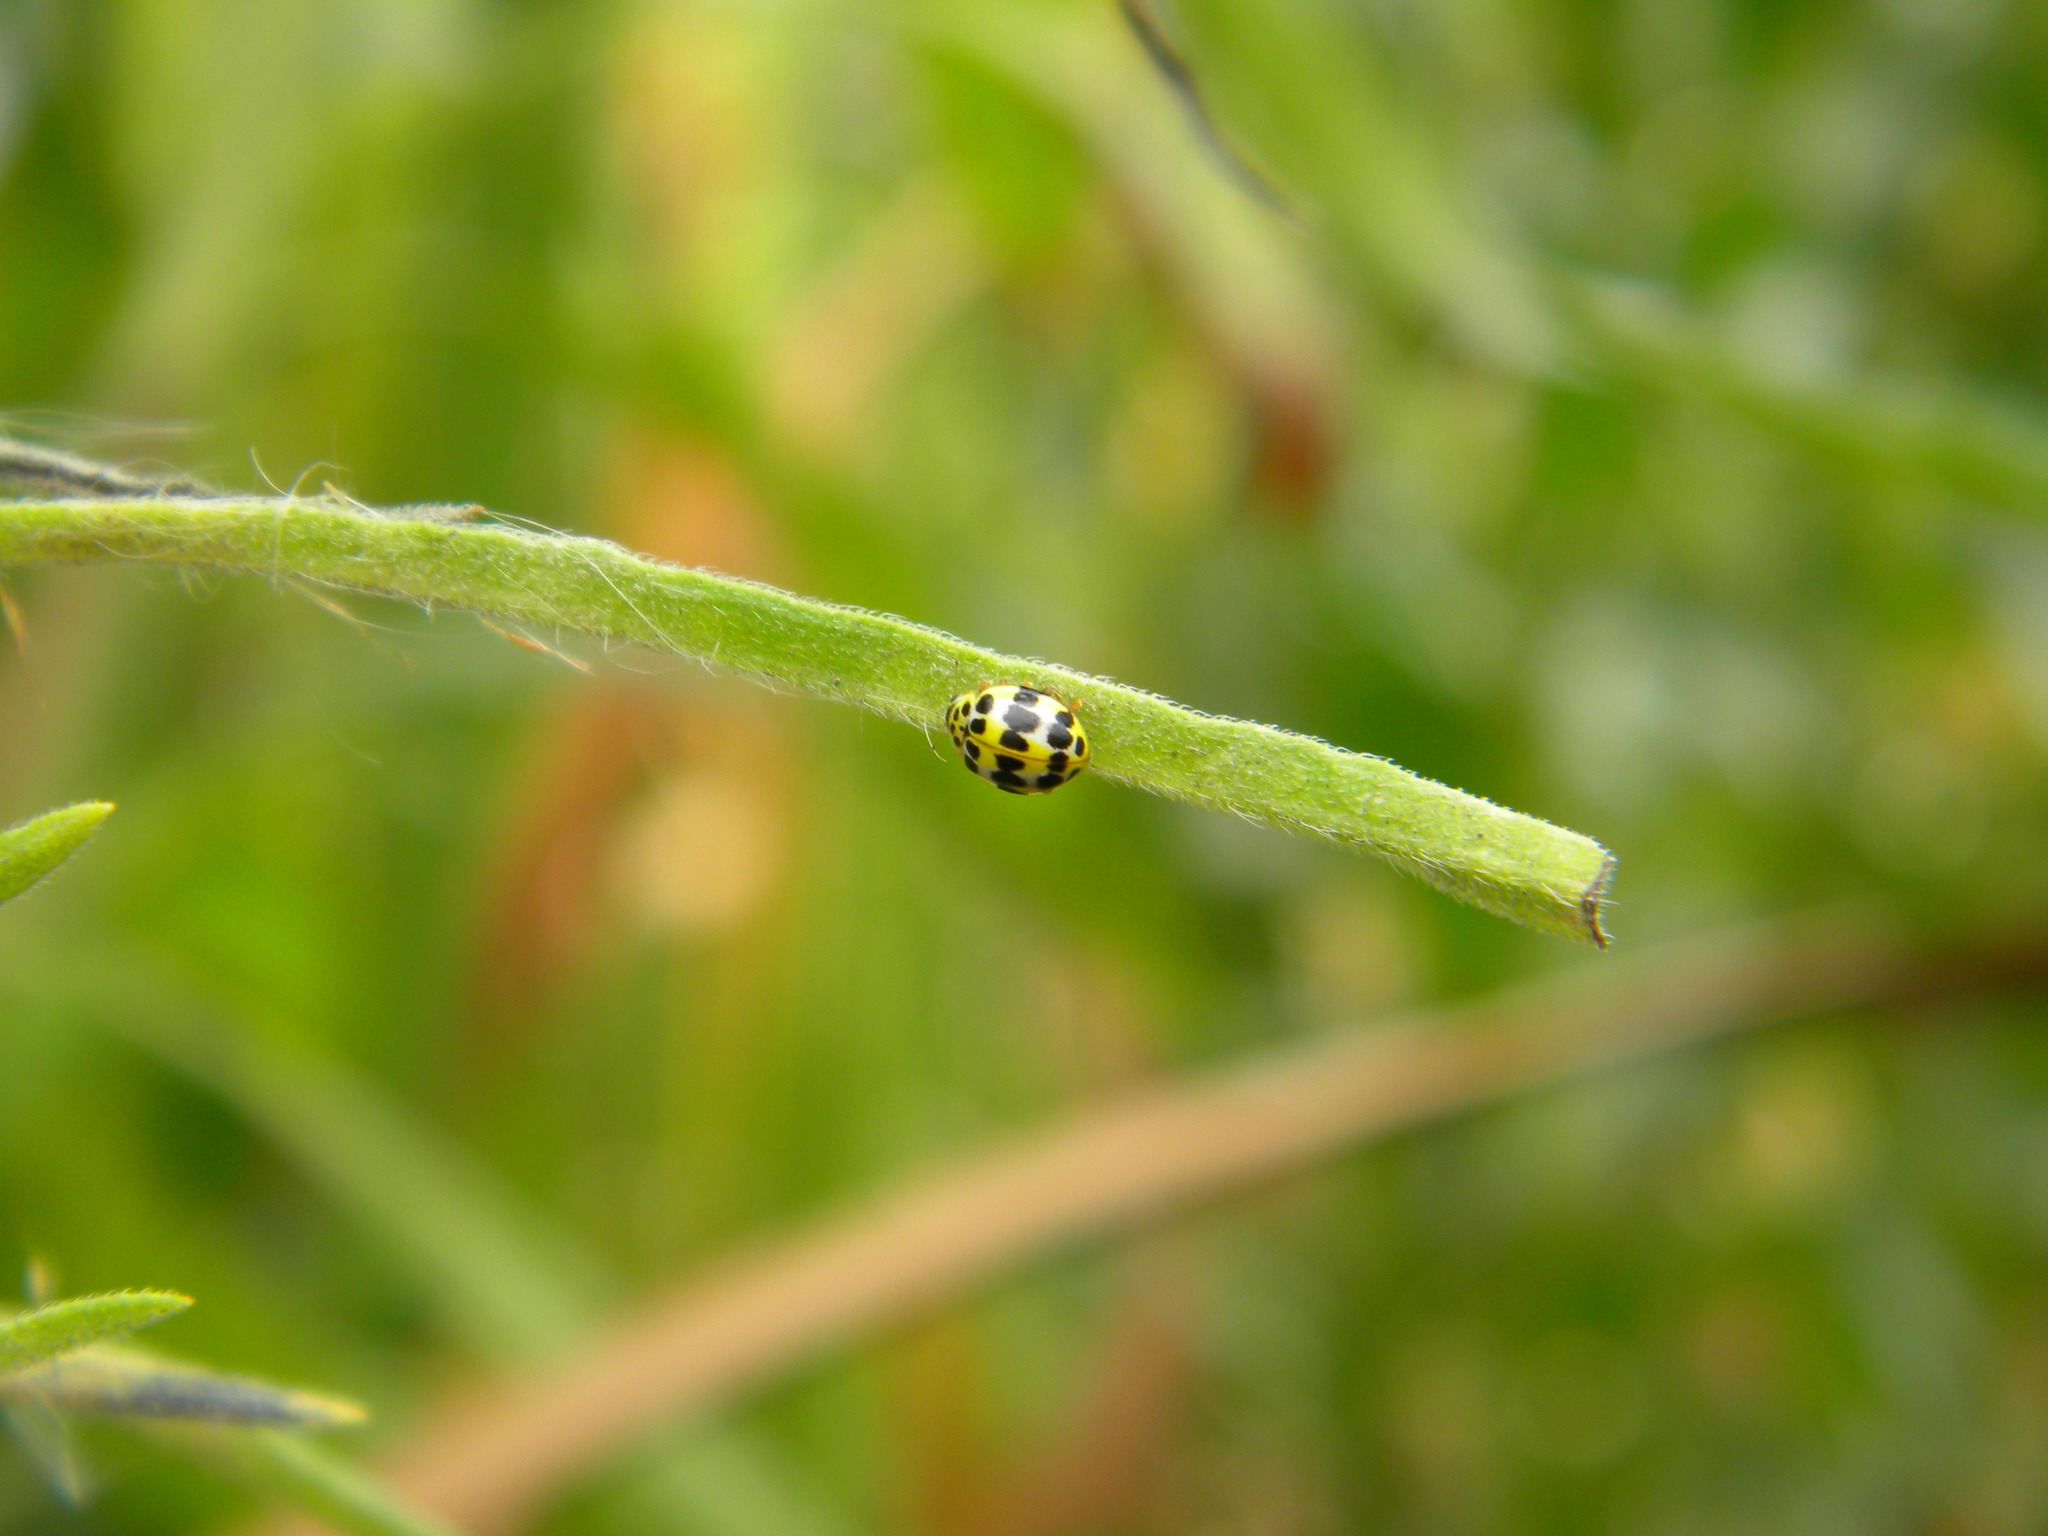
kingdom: Animalia
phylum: Arthropoda
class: Insecta
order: Coleoptera
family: Coccinellidae
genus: Psyllobora
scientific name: Psyllobora variegata
